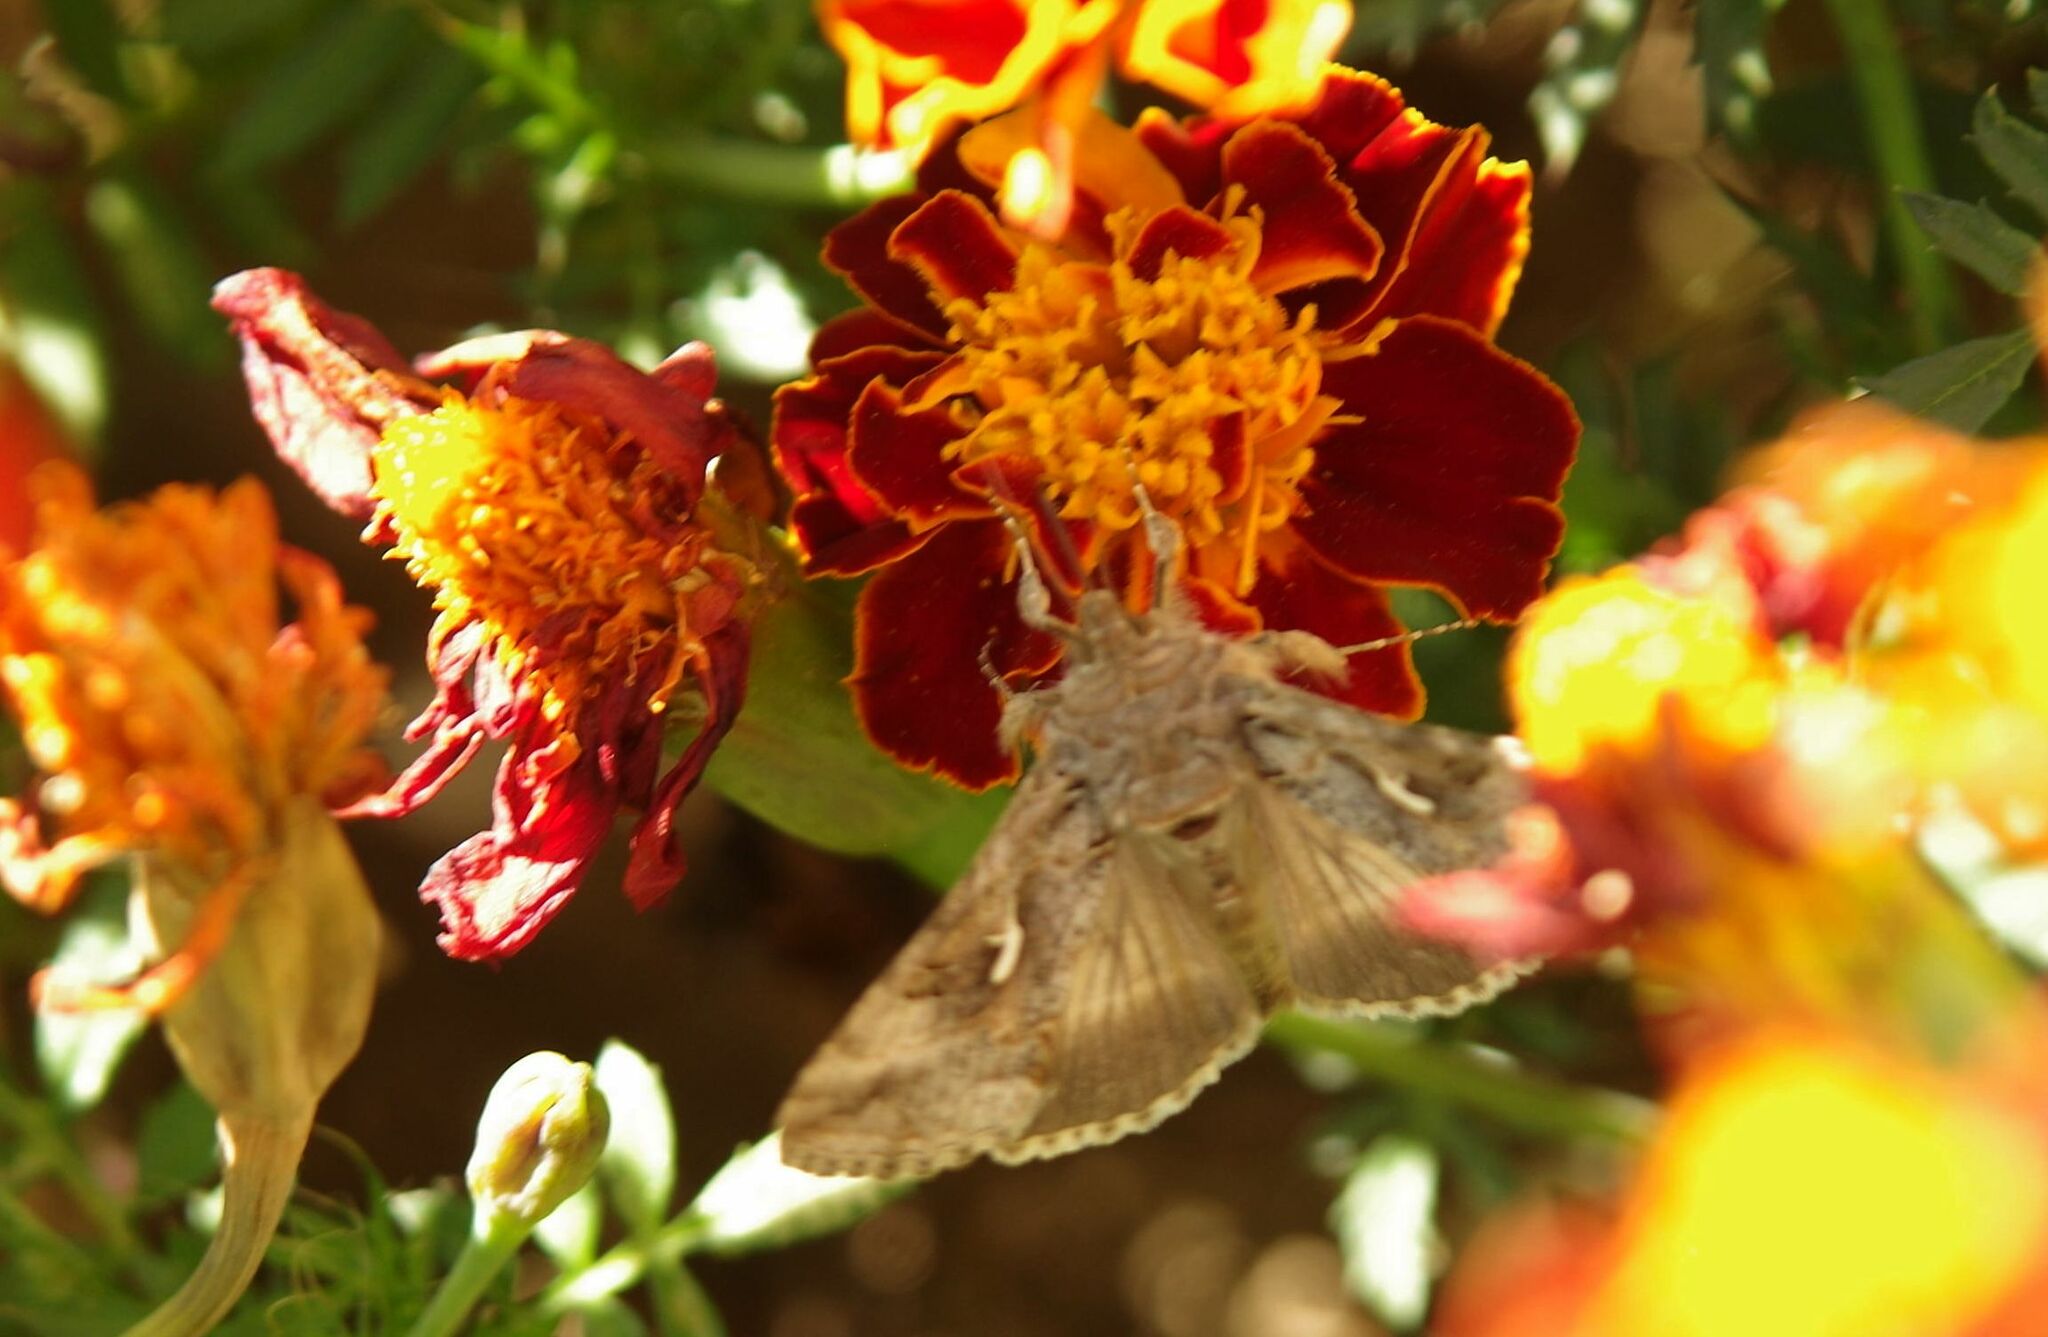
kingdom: Animalia
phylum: Arthropoda
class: Insecta
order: Lepidoptera
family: Noctuidae
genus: Autographa
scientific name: Autographa gamma
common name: Silver y
